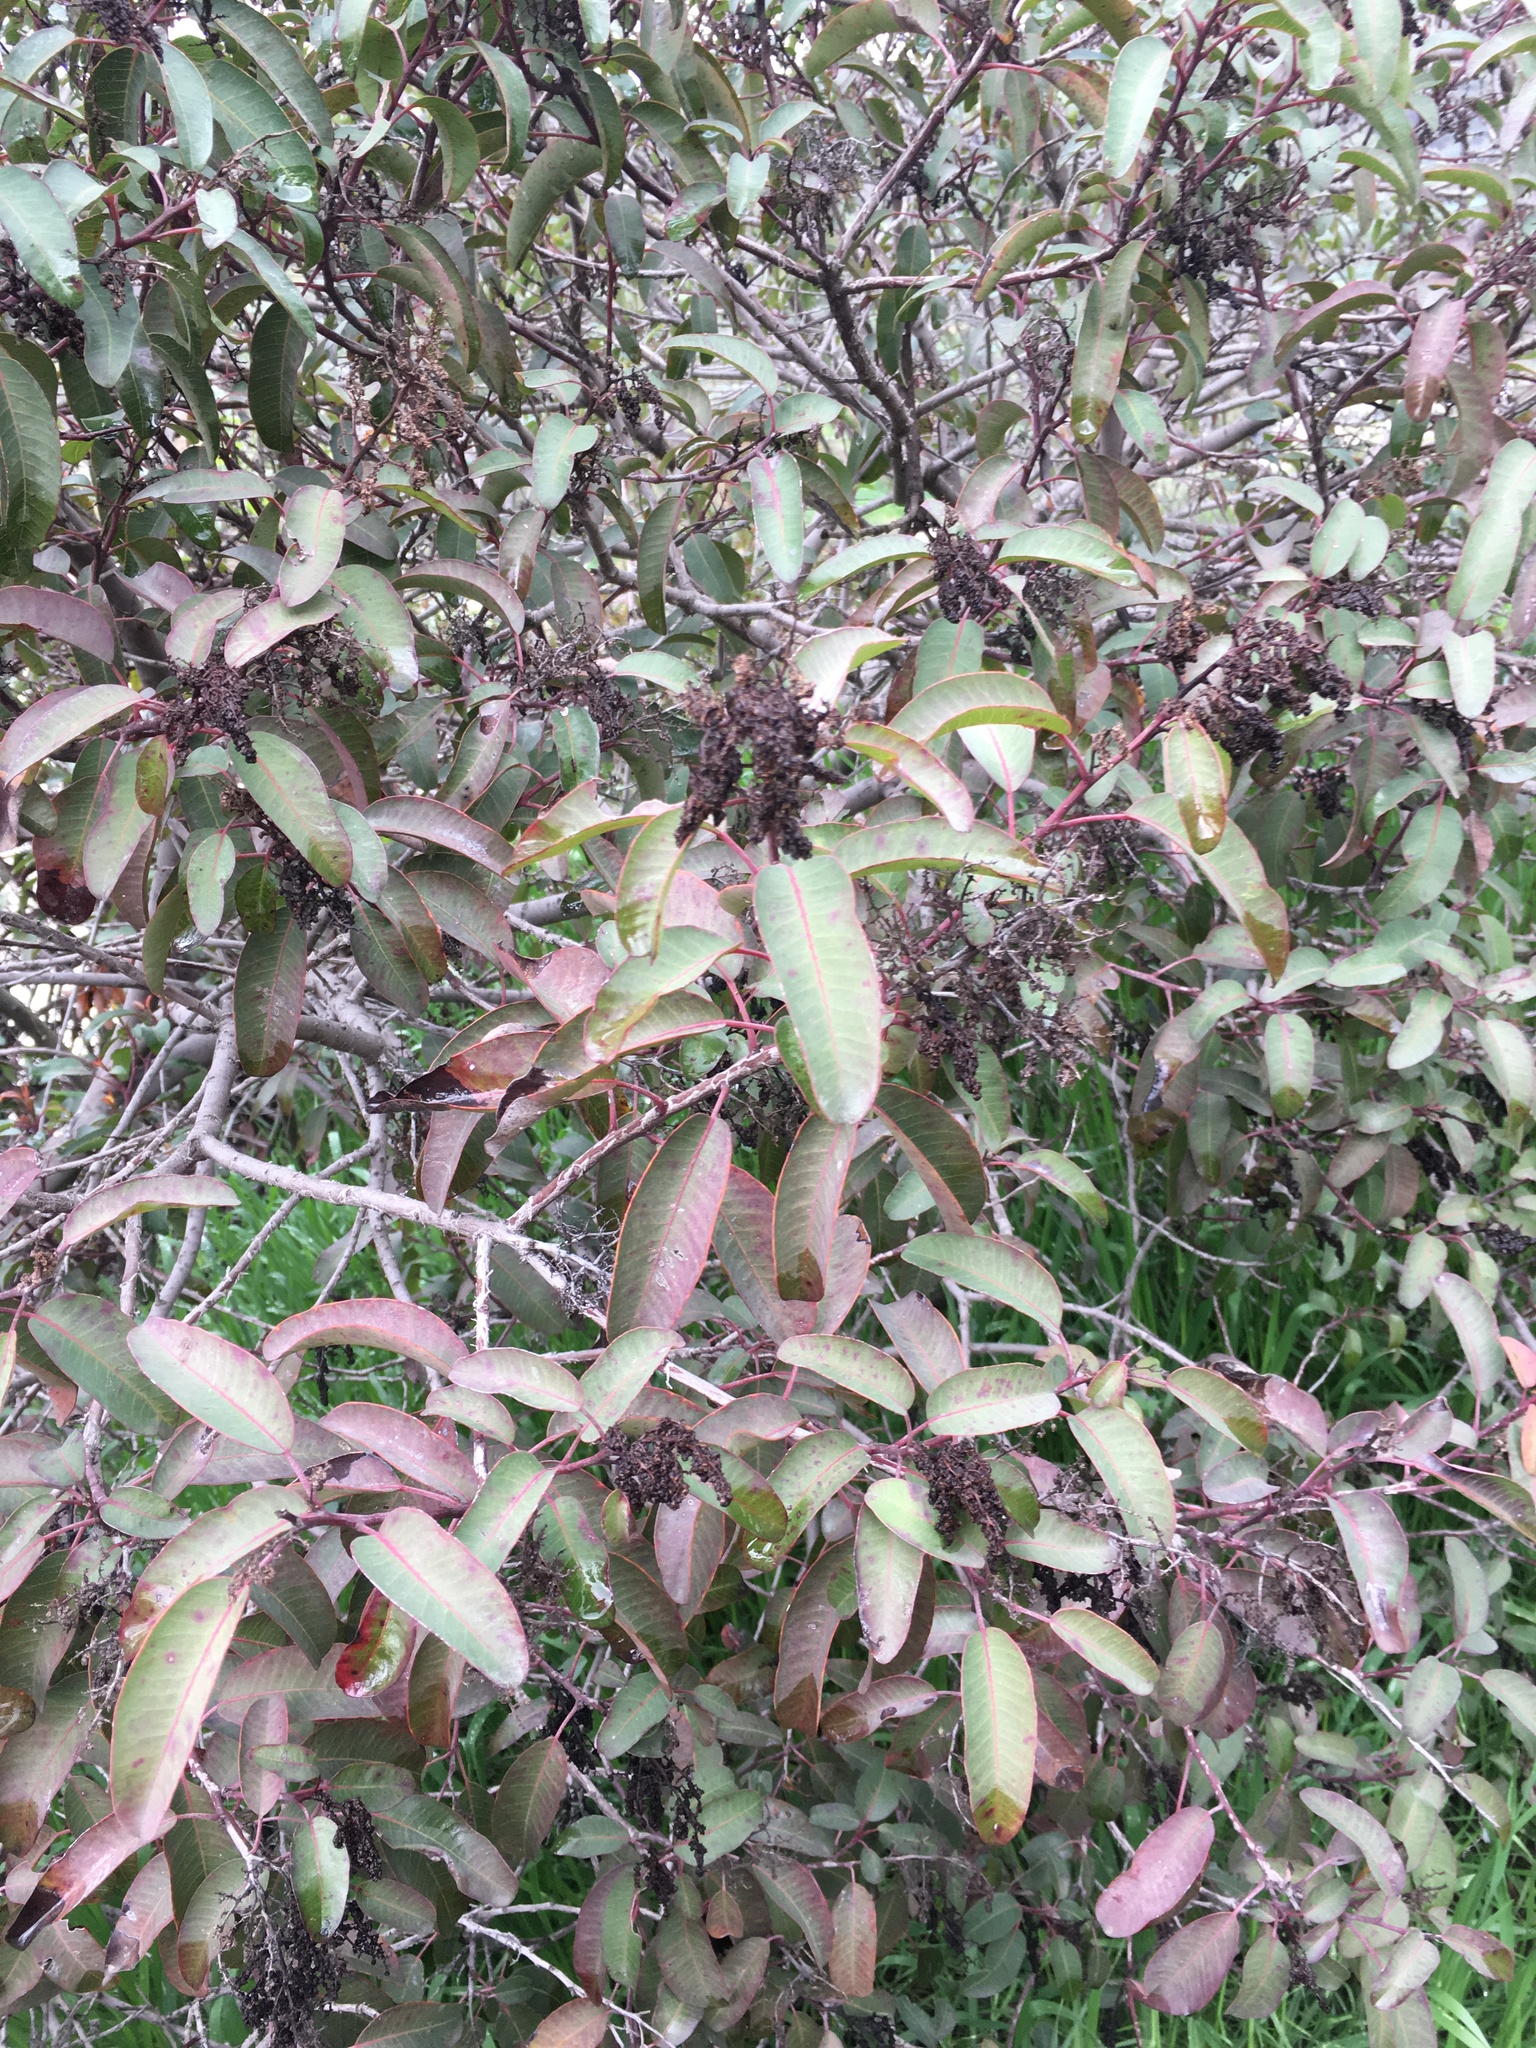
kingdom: Plantae
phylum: Tracheophyta
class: Magnoliopsida
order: Sapindales
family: Anacardiaceae
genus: Malosma
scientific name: Malosma laurina
